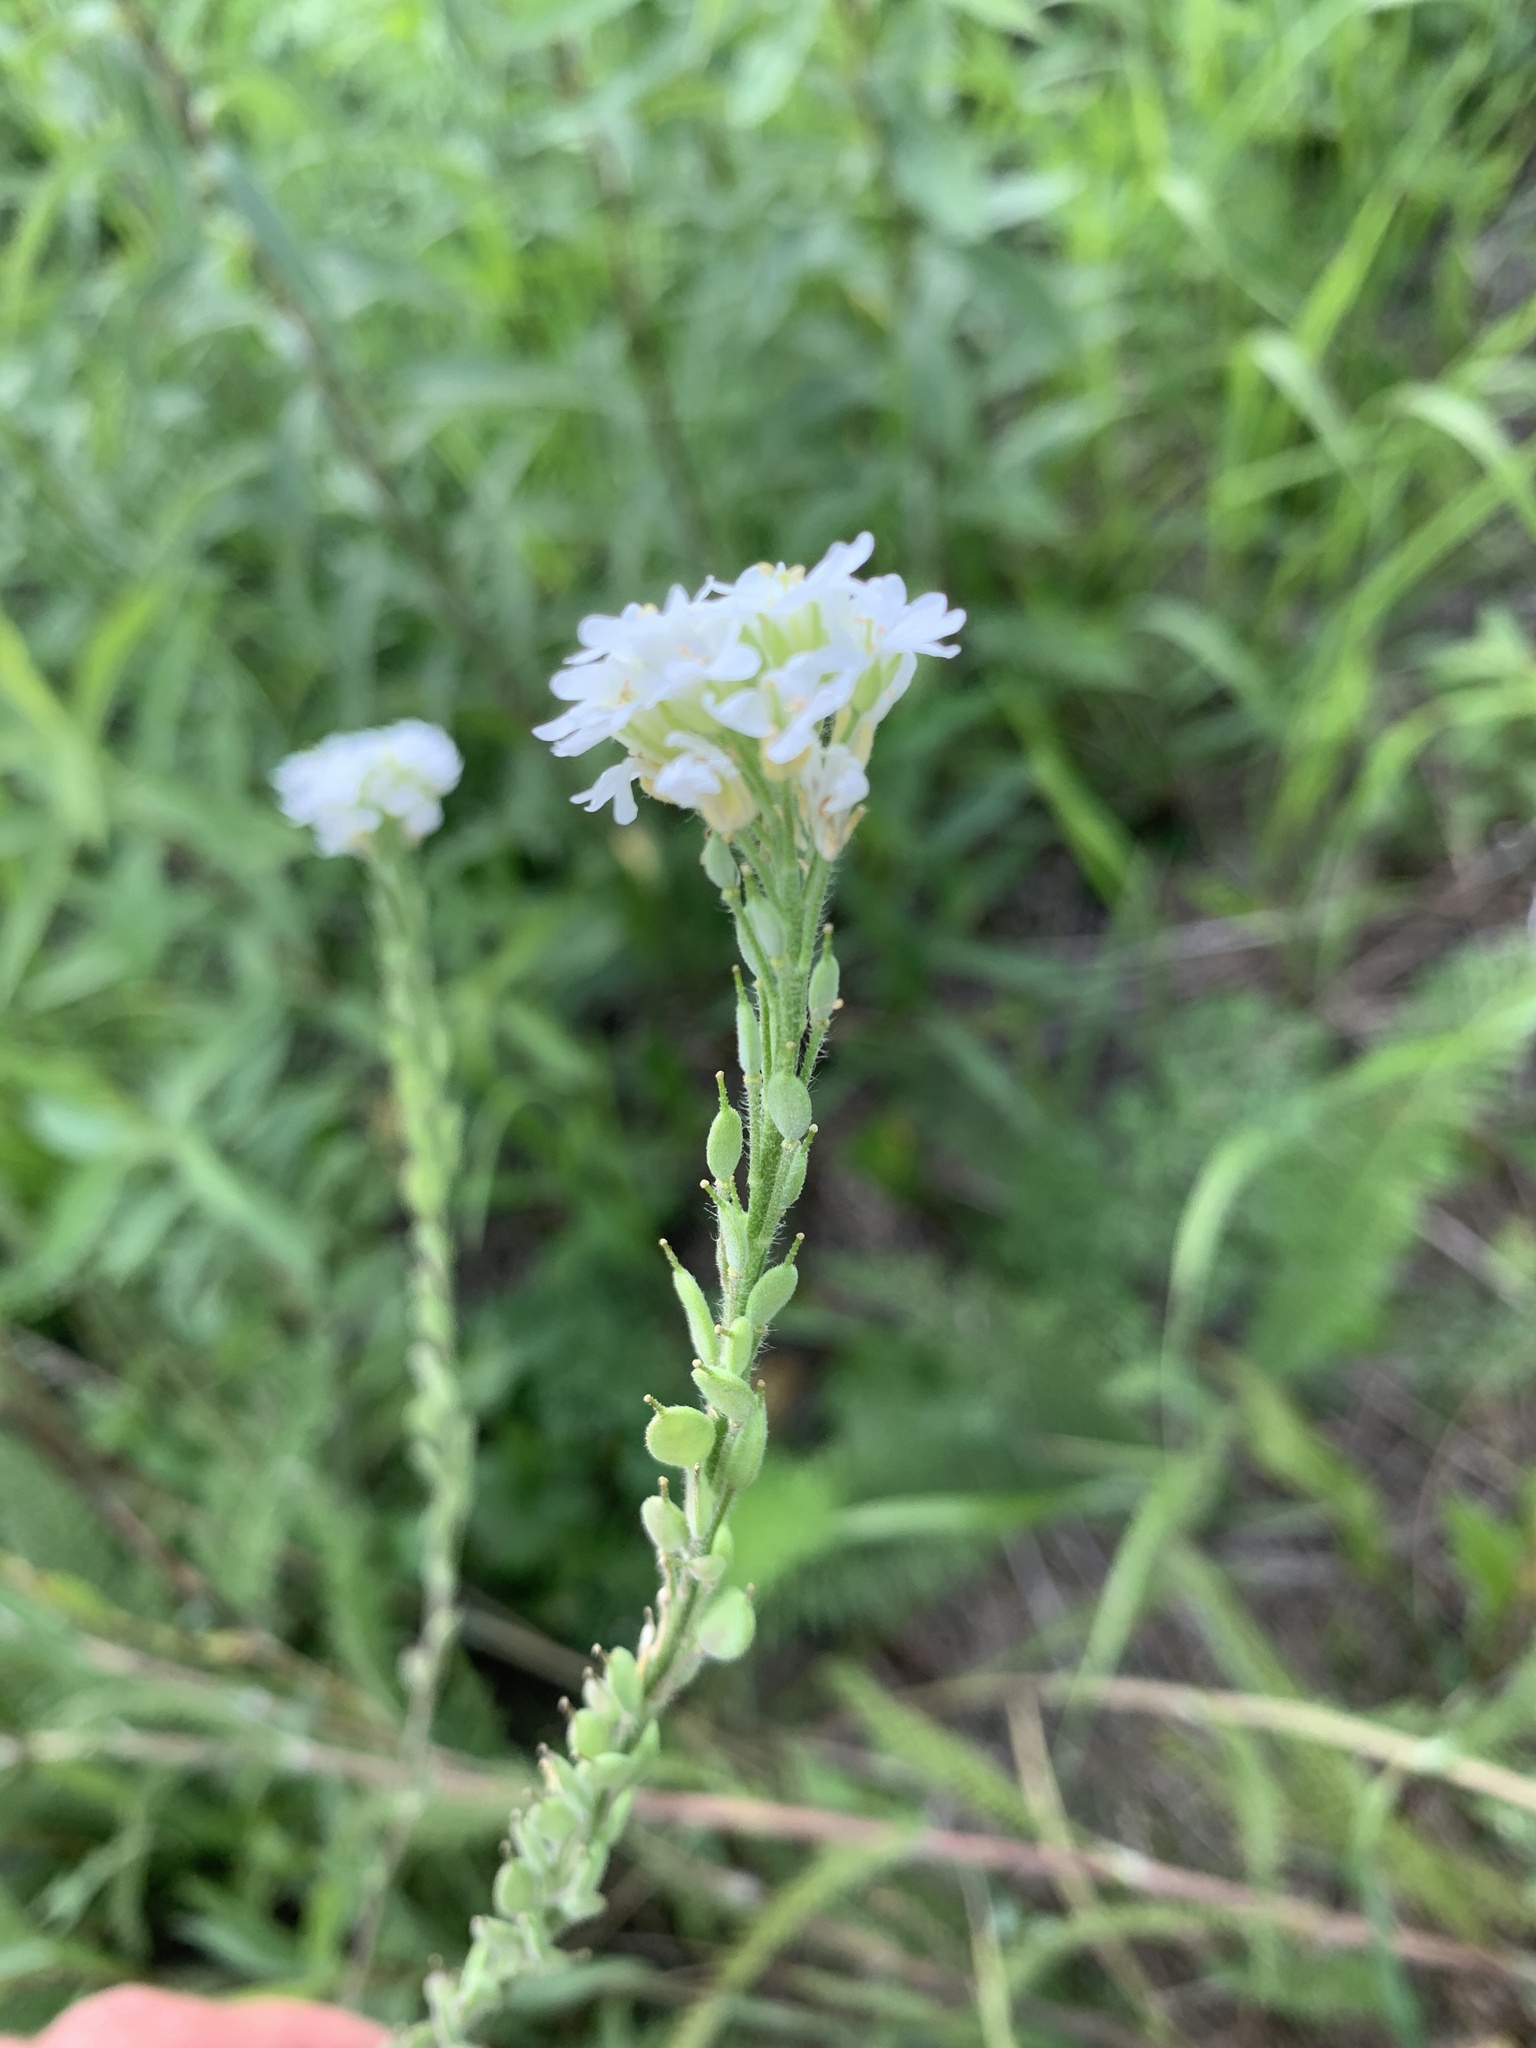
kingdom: Plantae
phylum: Tracheophyta
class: Magnoliopsida
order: Brassicales
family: Brassicaceae
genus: Berteroa
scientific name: Berteroa incana
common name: Hoary alison
